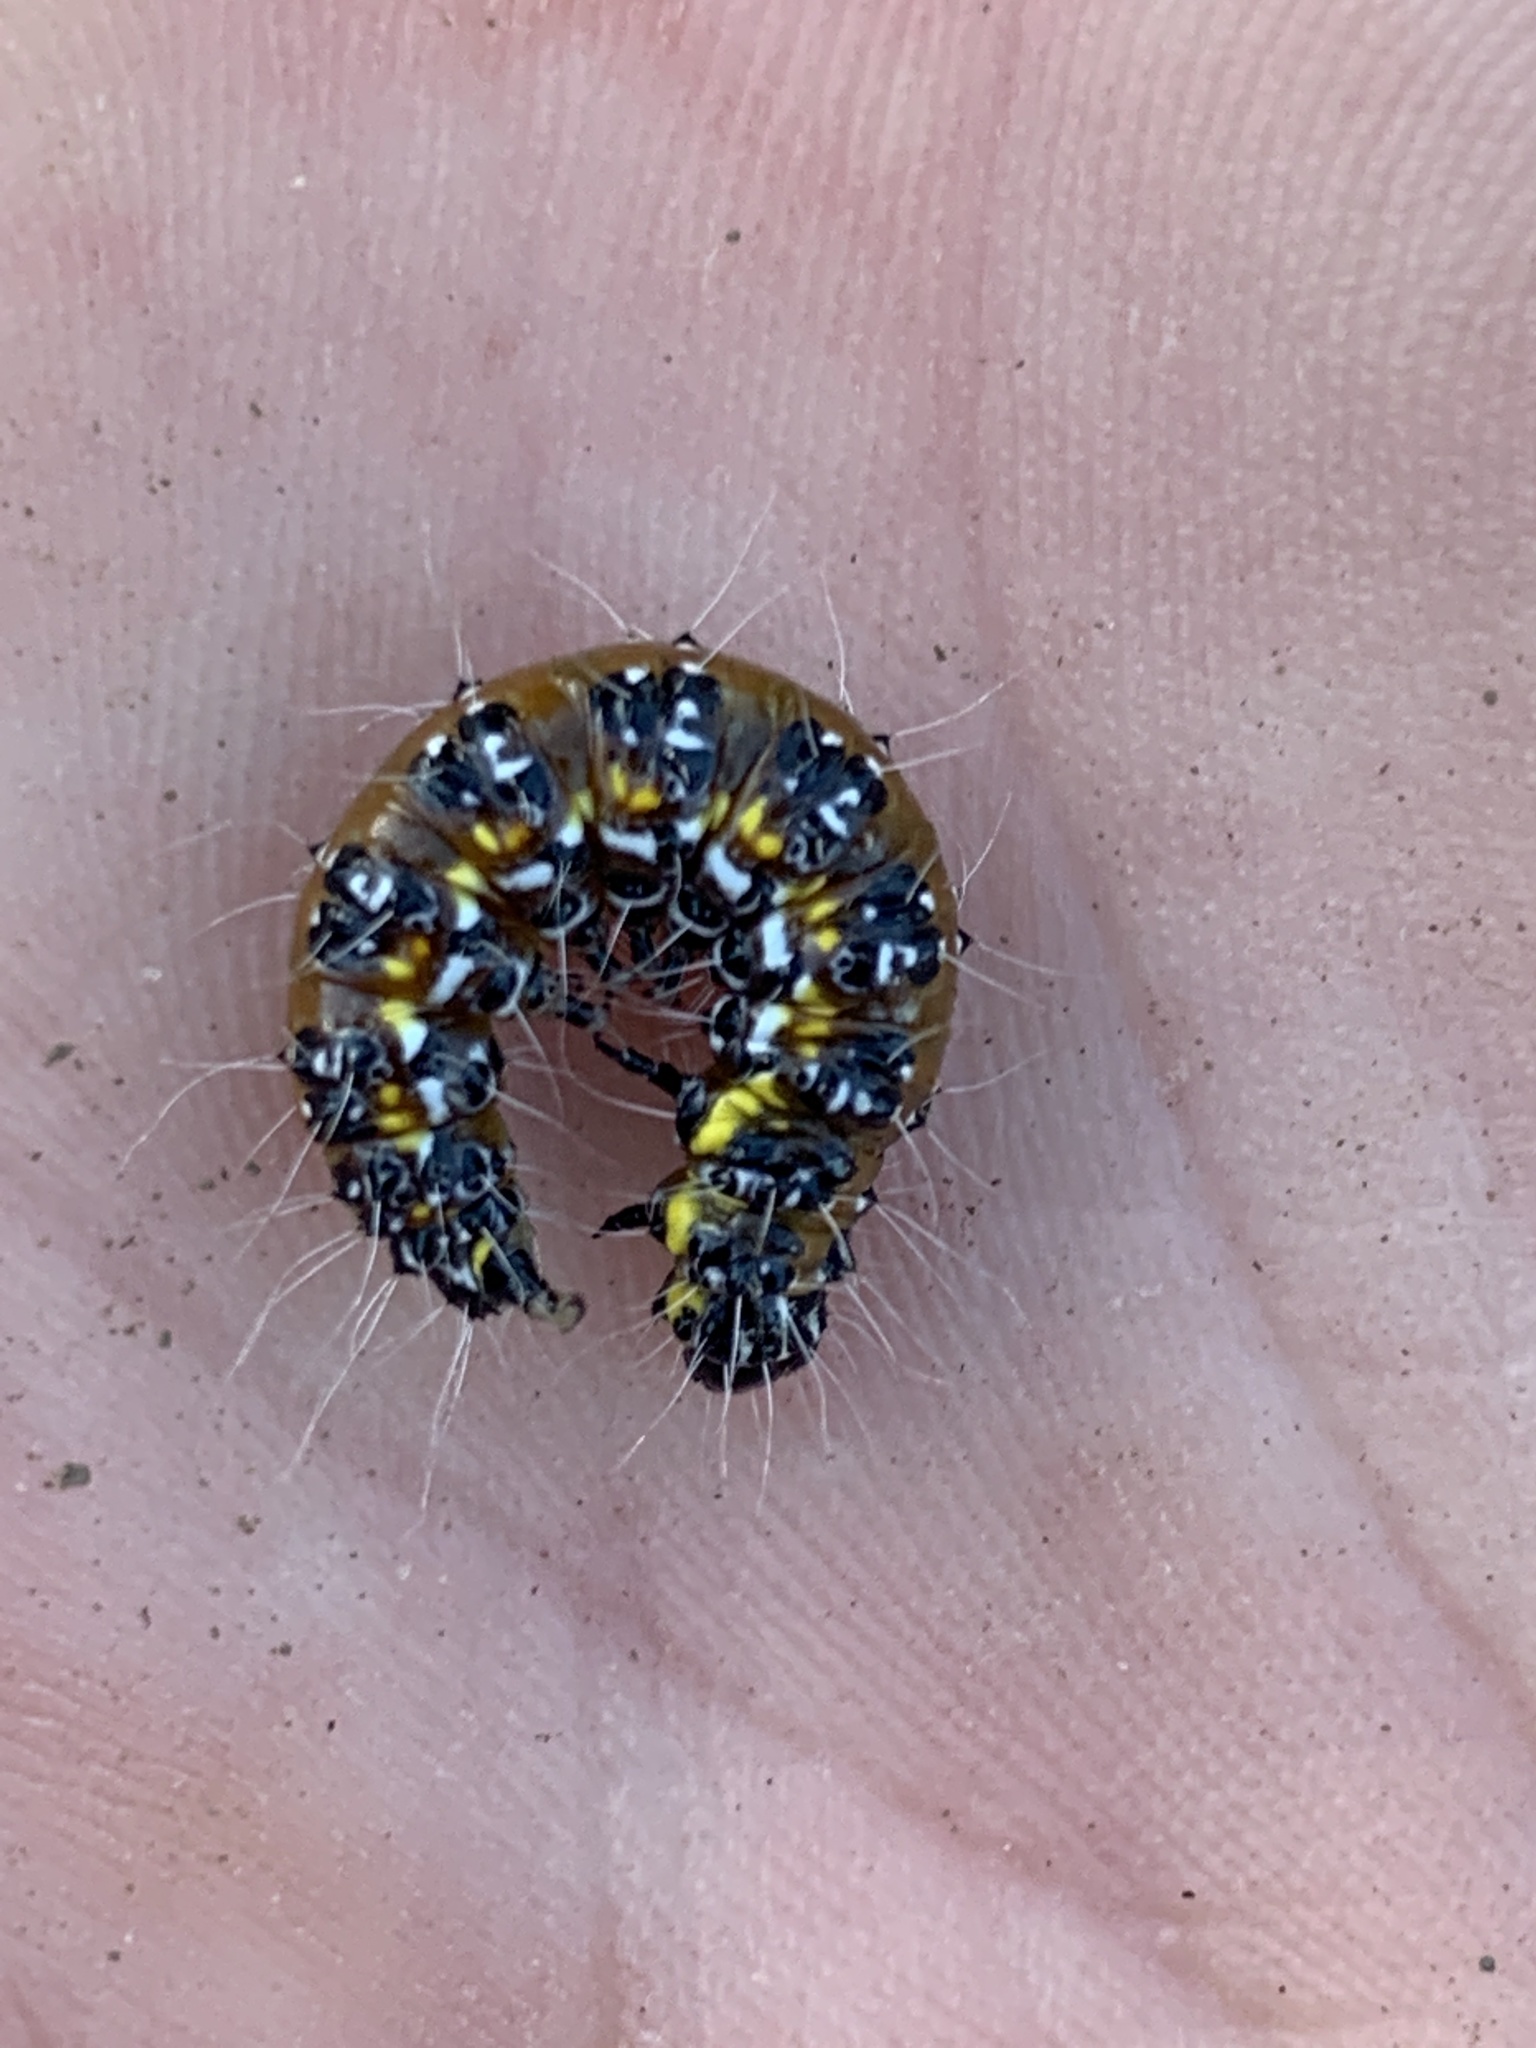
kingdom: Animalia
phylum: Arthropoda
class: Insecta
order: Lepidoptera
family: Crambidae
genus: Uresiphita
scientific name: Uresiphita reversalis
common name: Genista broom moth
